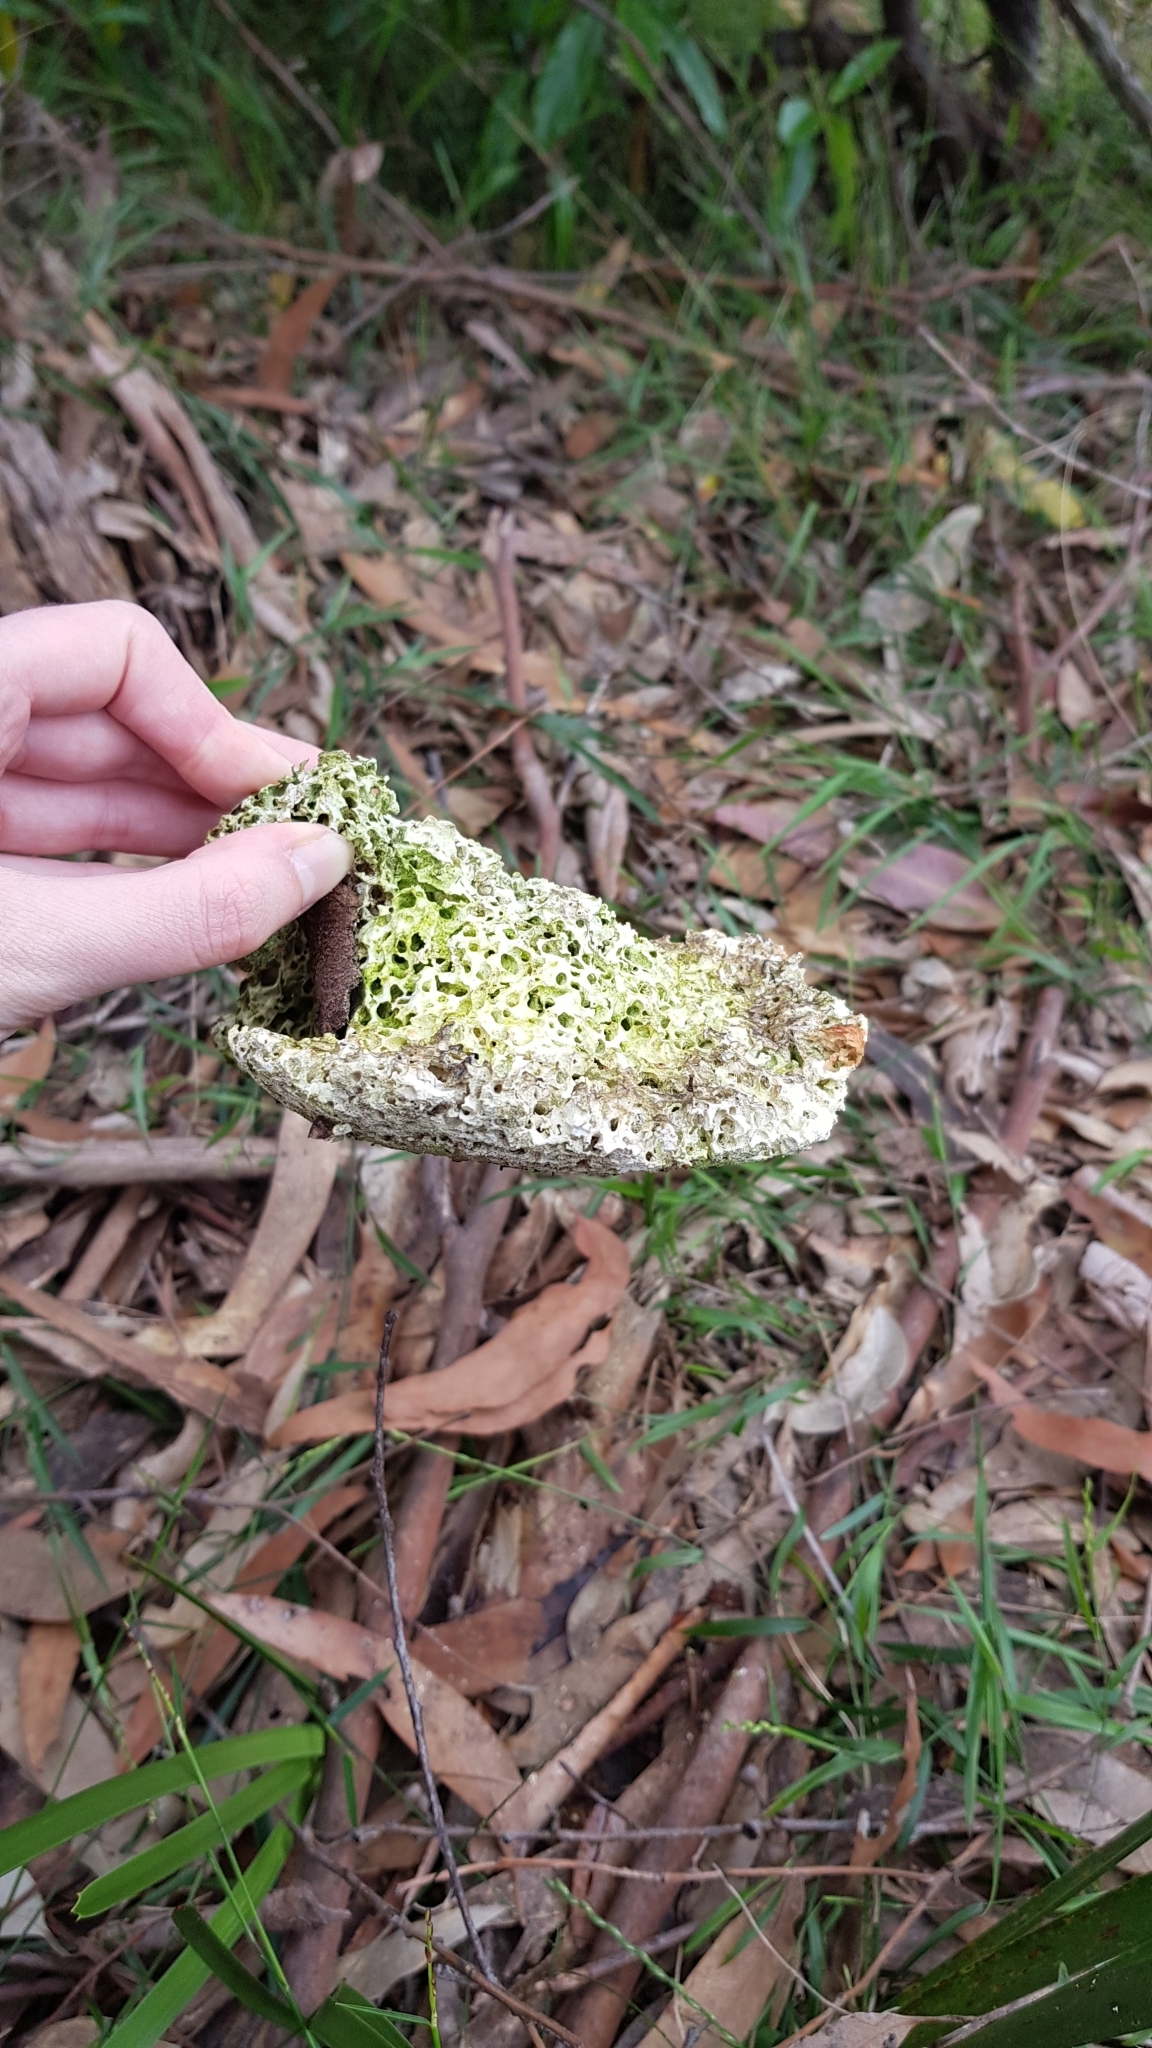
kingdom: Fungi
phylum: Basidiomycota
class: Agaricomycetes
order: Polyporales
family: Laetiporaceae
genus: Laetiporus
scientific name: Laetiporus portentosus
